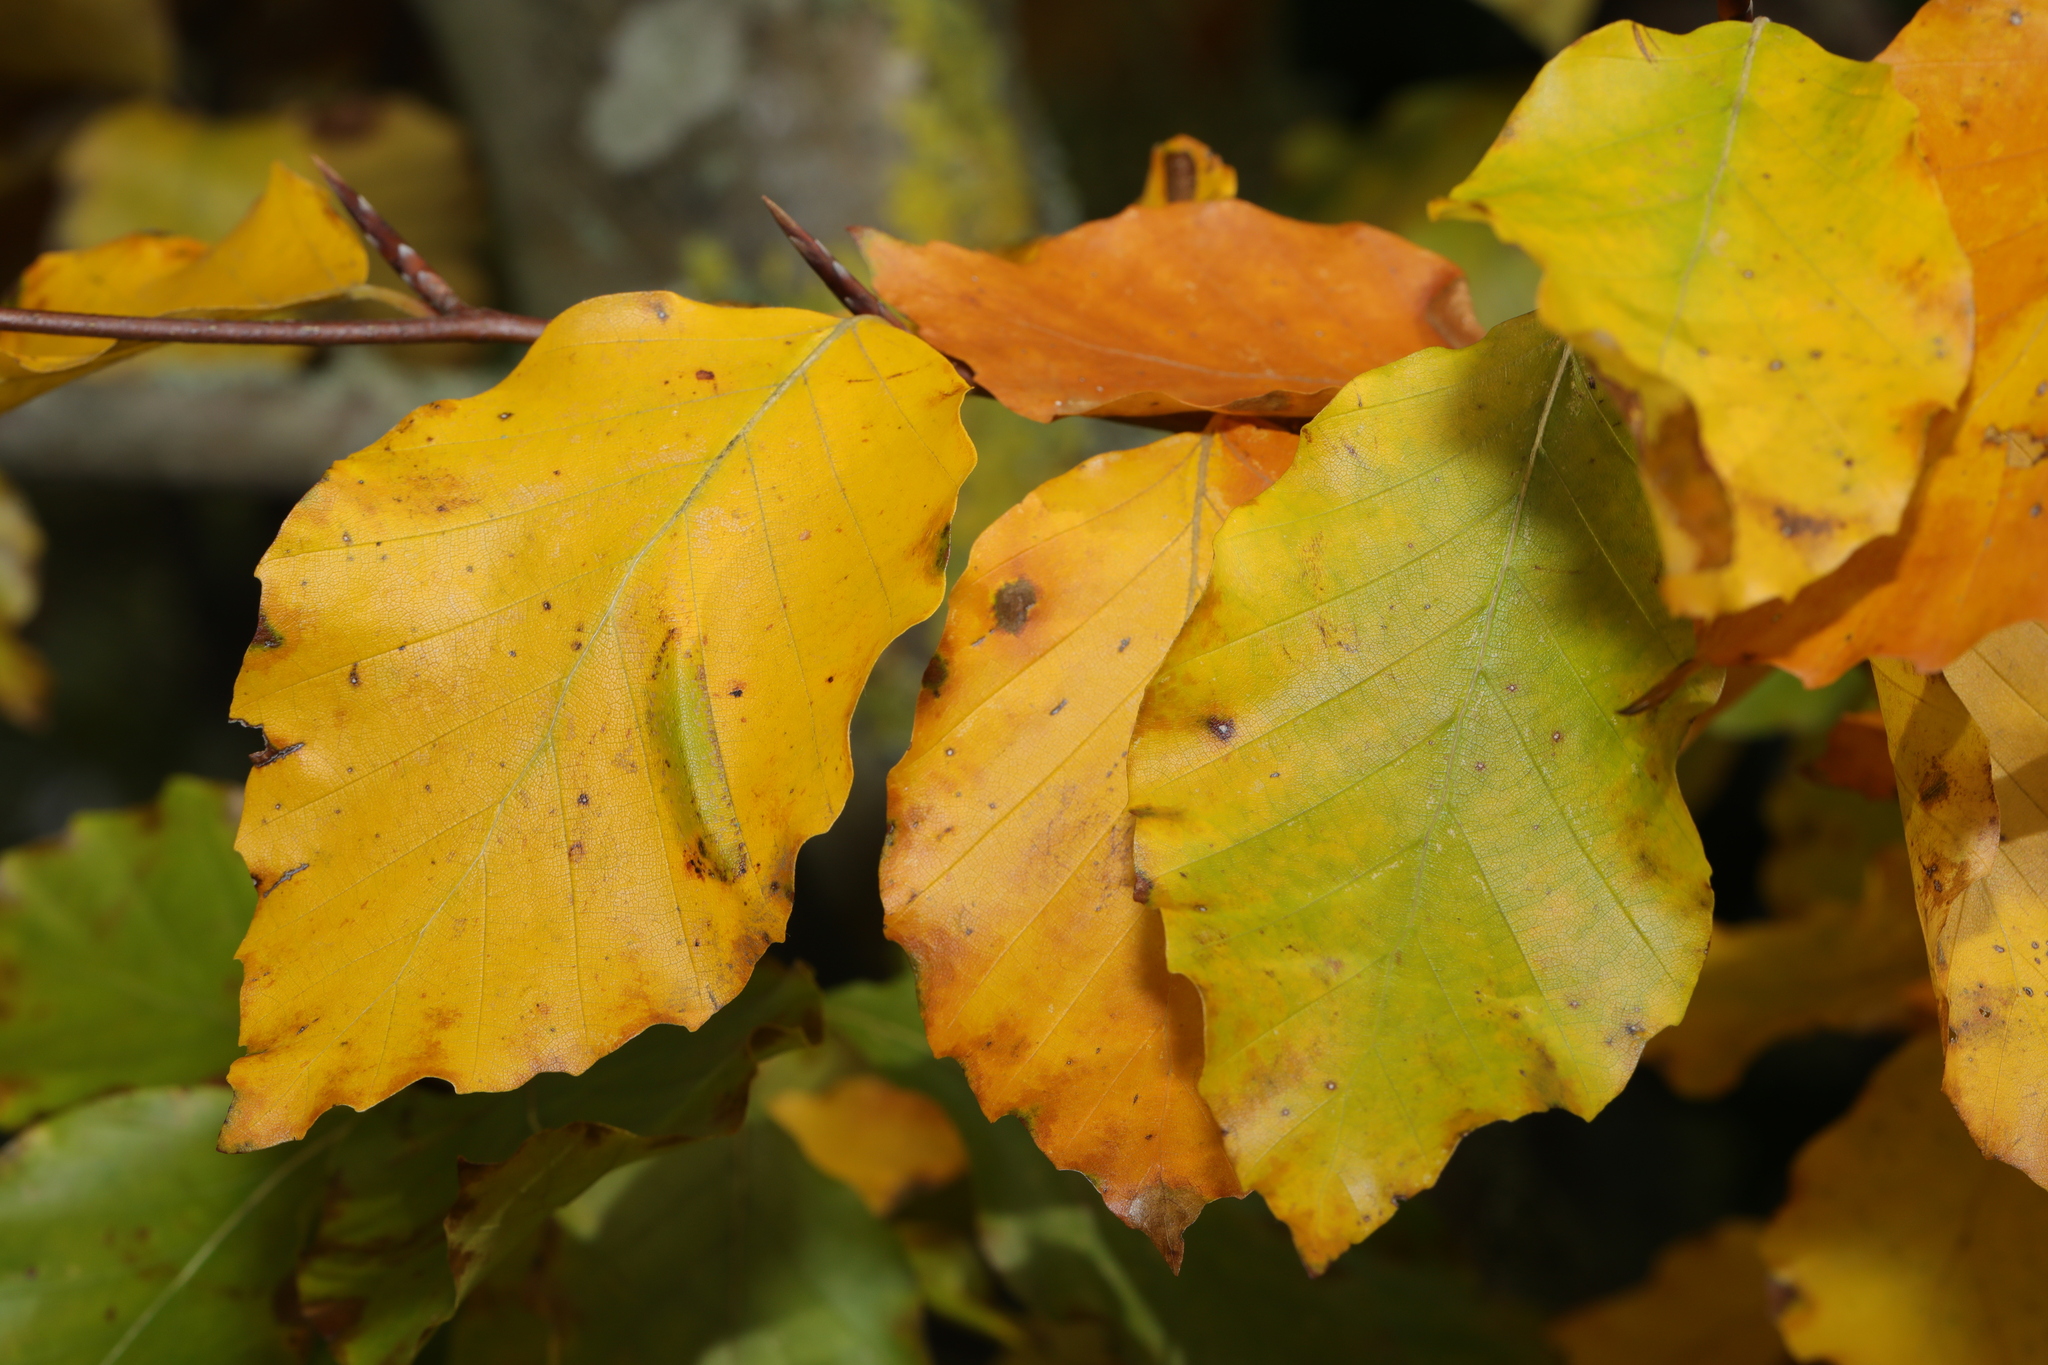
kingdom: Plantae
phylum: Tracheophyta
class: Magnoliopsida
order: Fagales
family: Fagaceae
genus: Fagus
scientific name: Fagus sylvatica
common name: Beech
